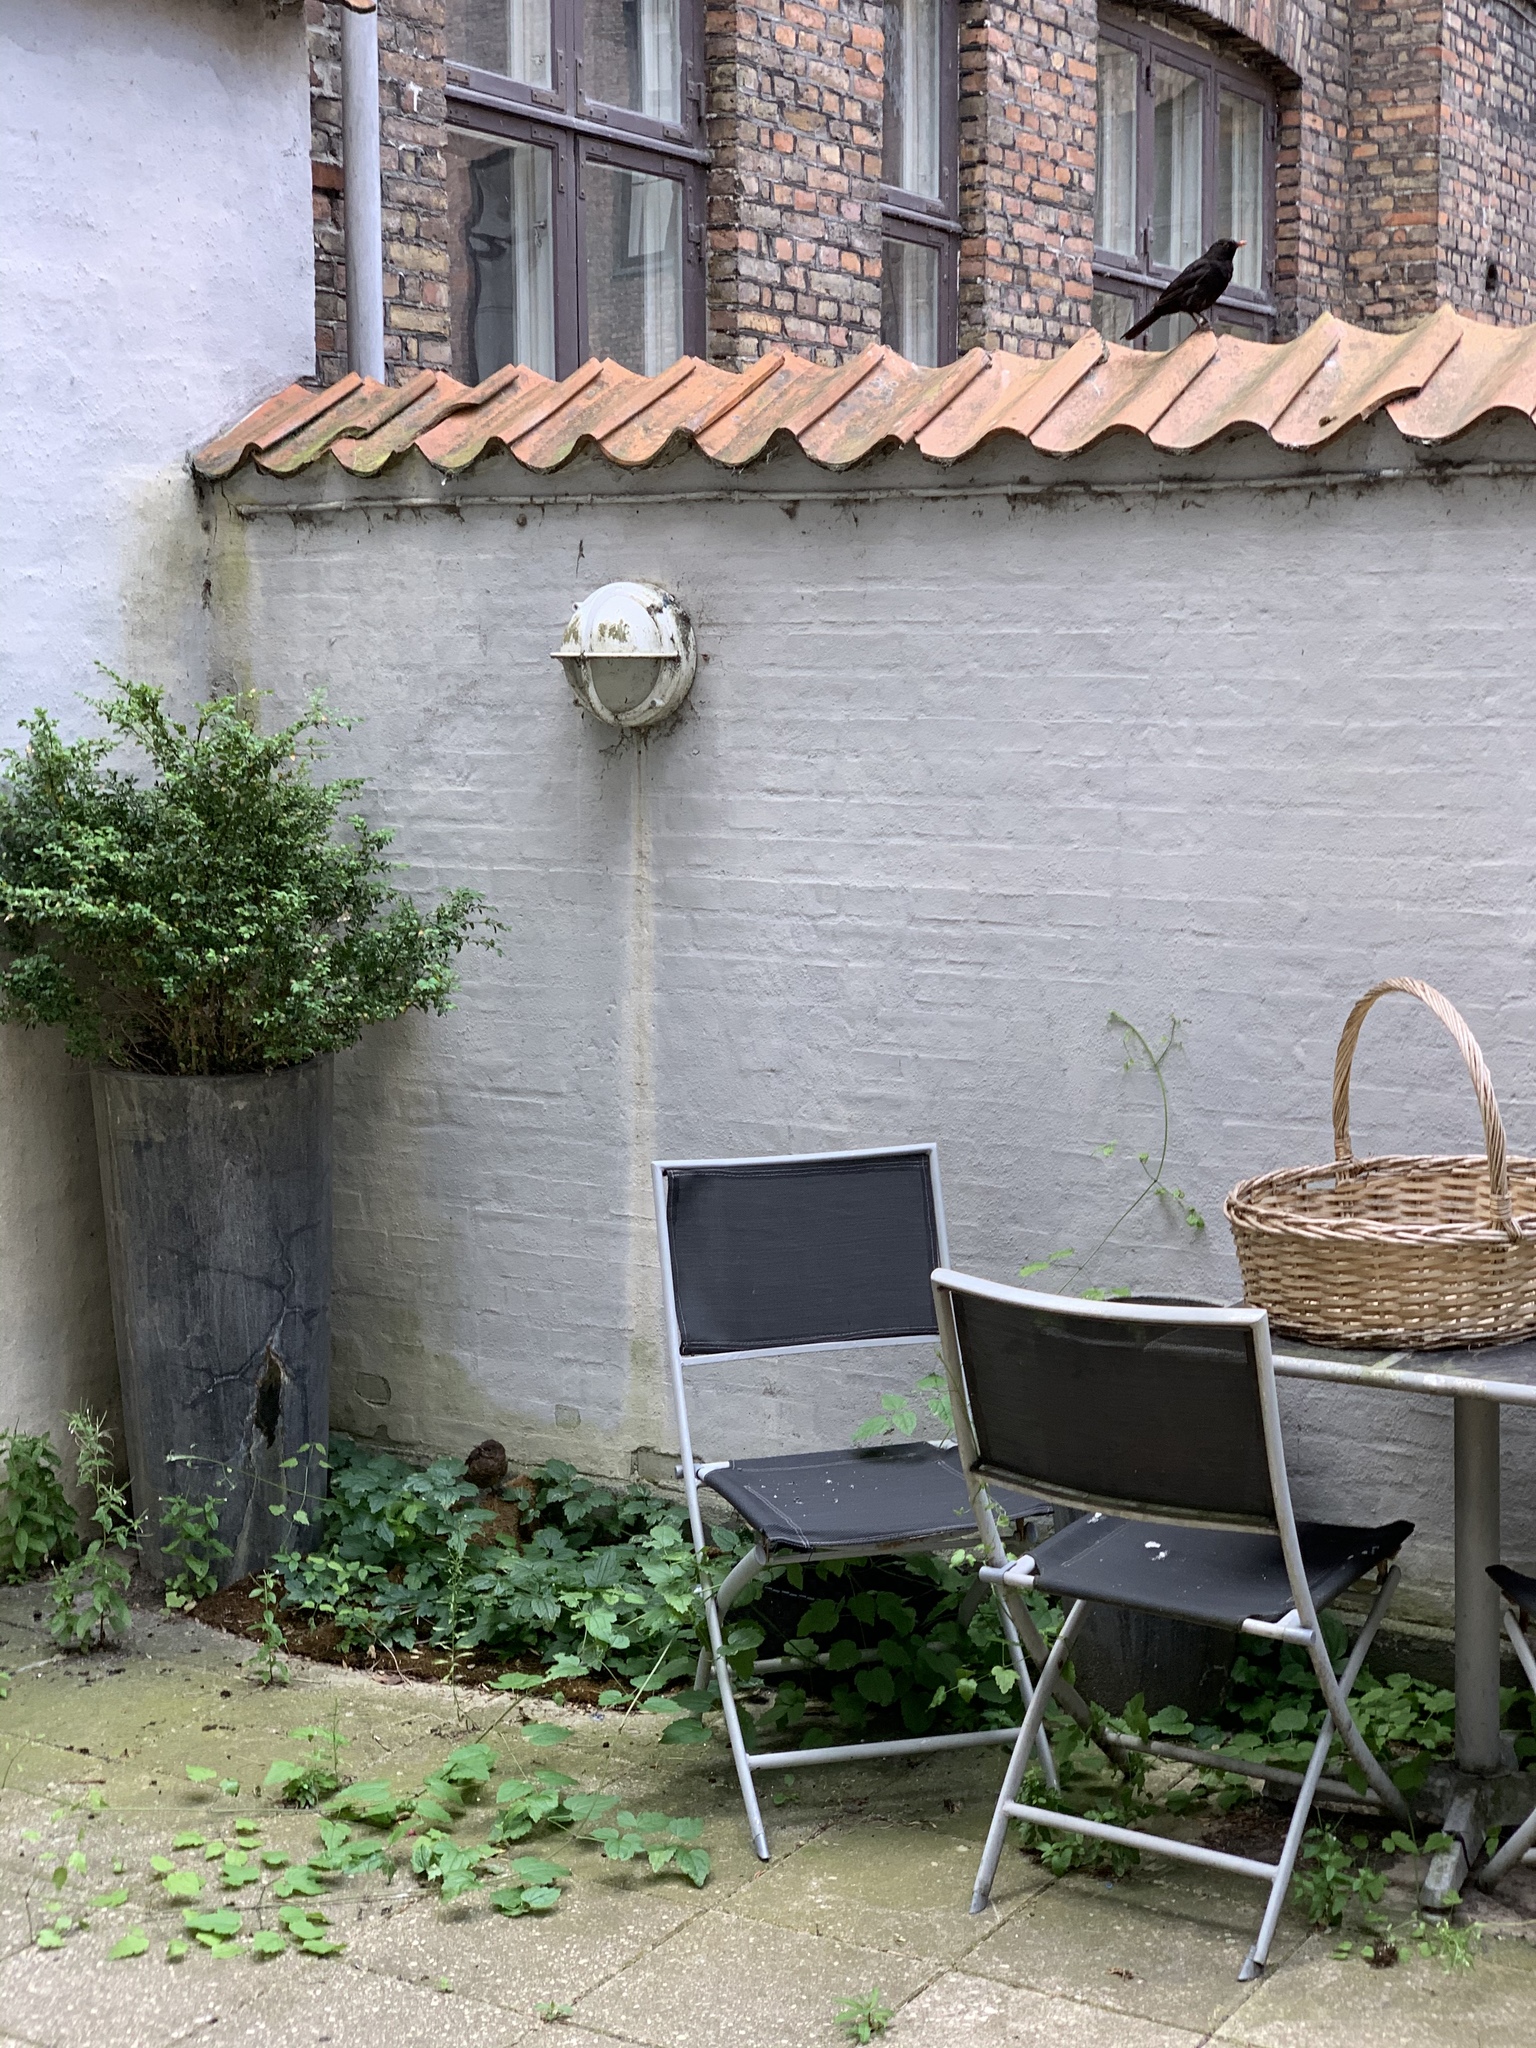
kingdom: Animalia
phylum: Chordata
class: Aves
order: Passeriformes
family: Turdidae
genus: Turdus
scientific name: Turdus merula
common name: Common blackbird
